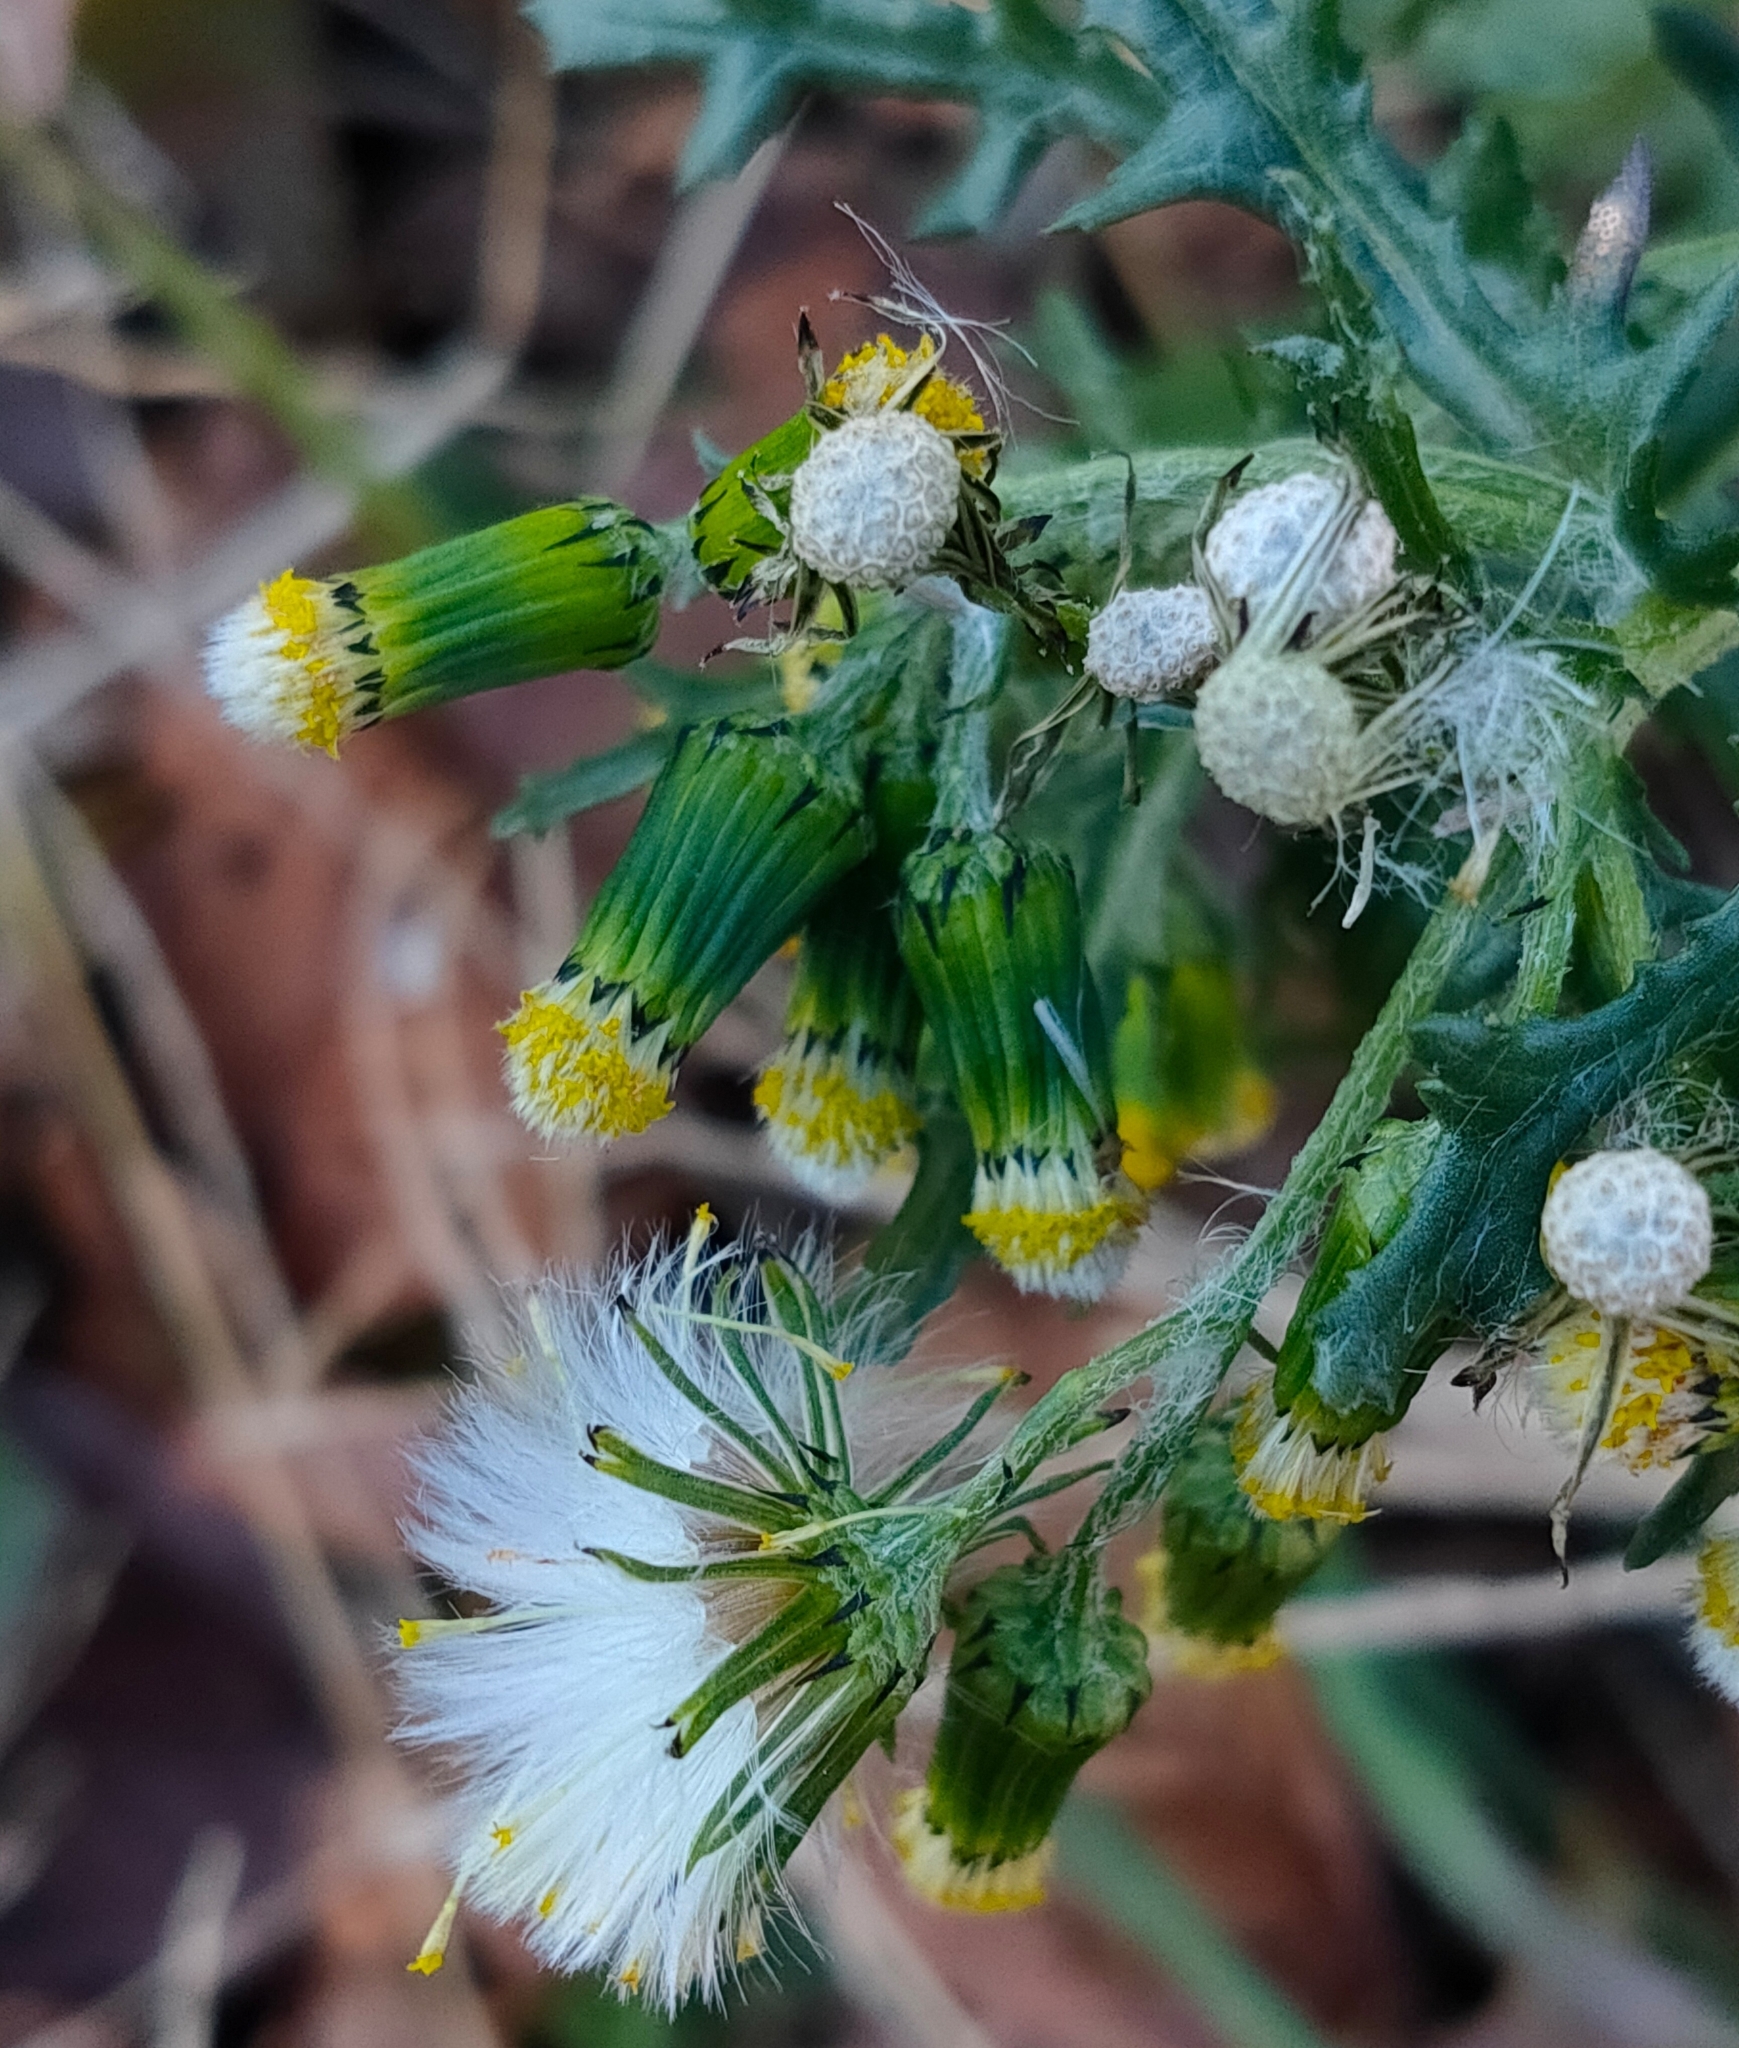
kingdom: Plantae
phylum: Tracheophyta
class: Magnoliopsida
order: Asterales
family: Asteraceae
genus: Senecio
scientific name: Senecio vulgaris
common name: Old-man-in-the-spring
